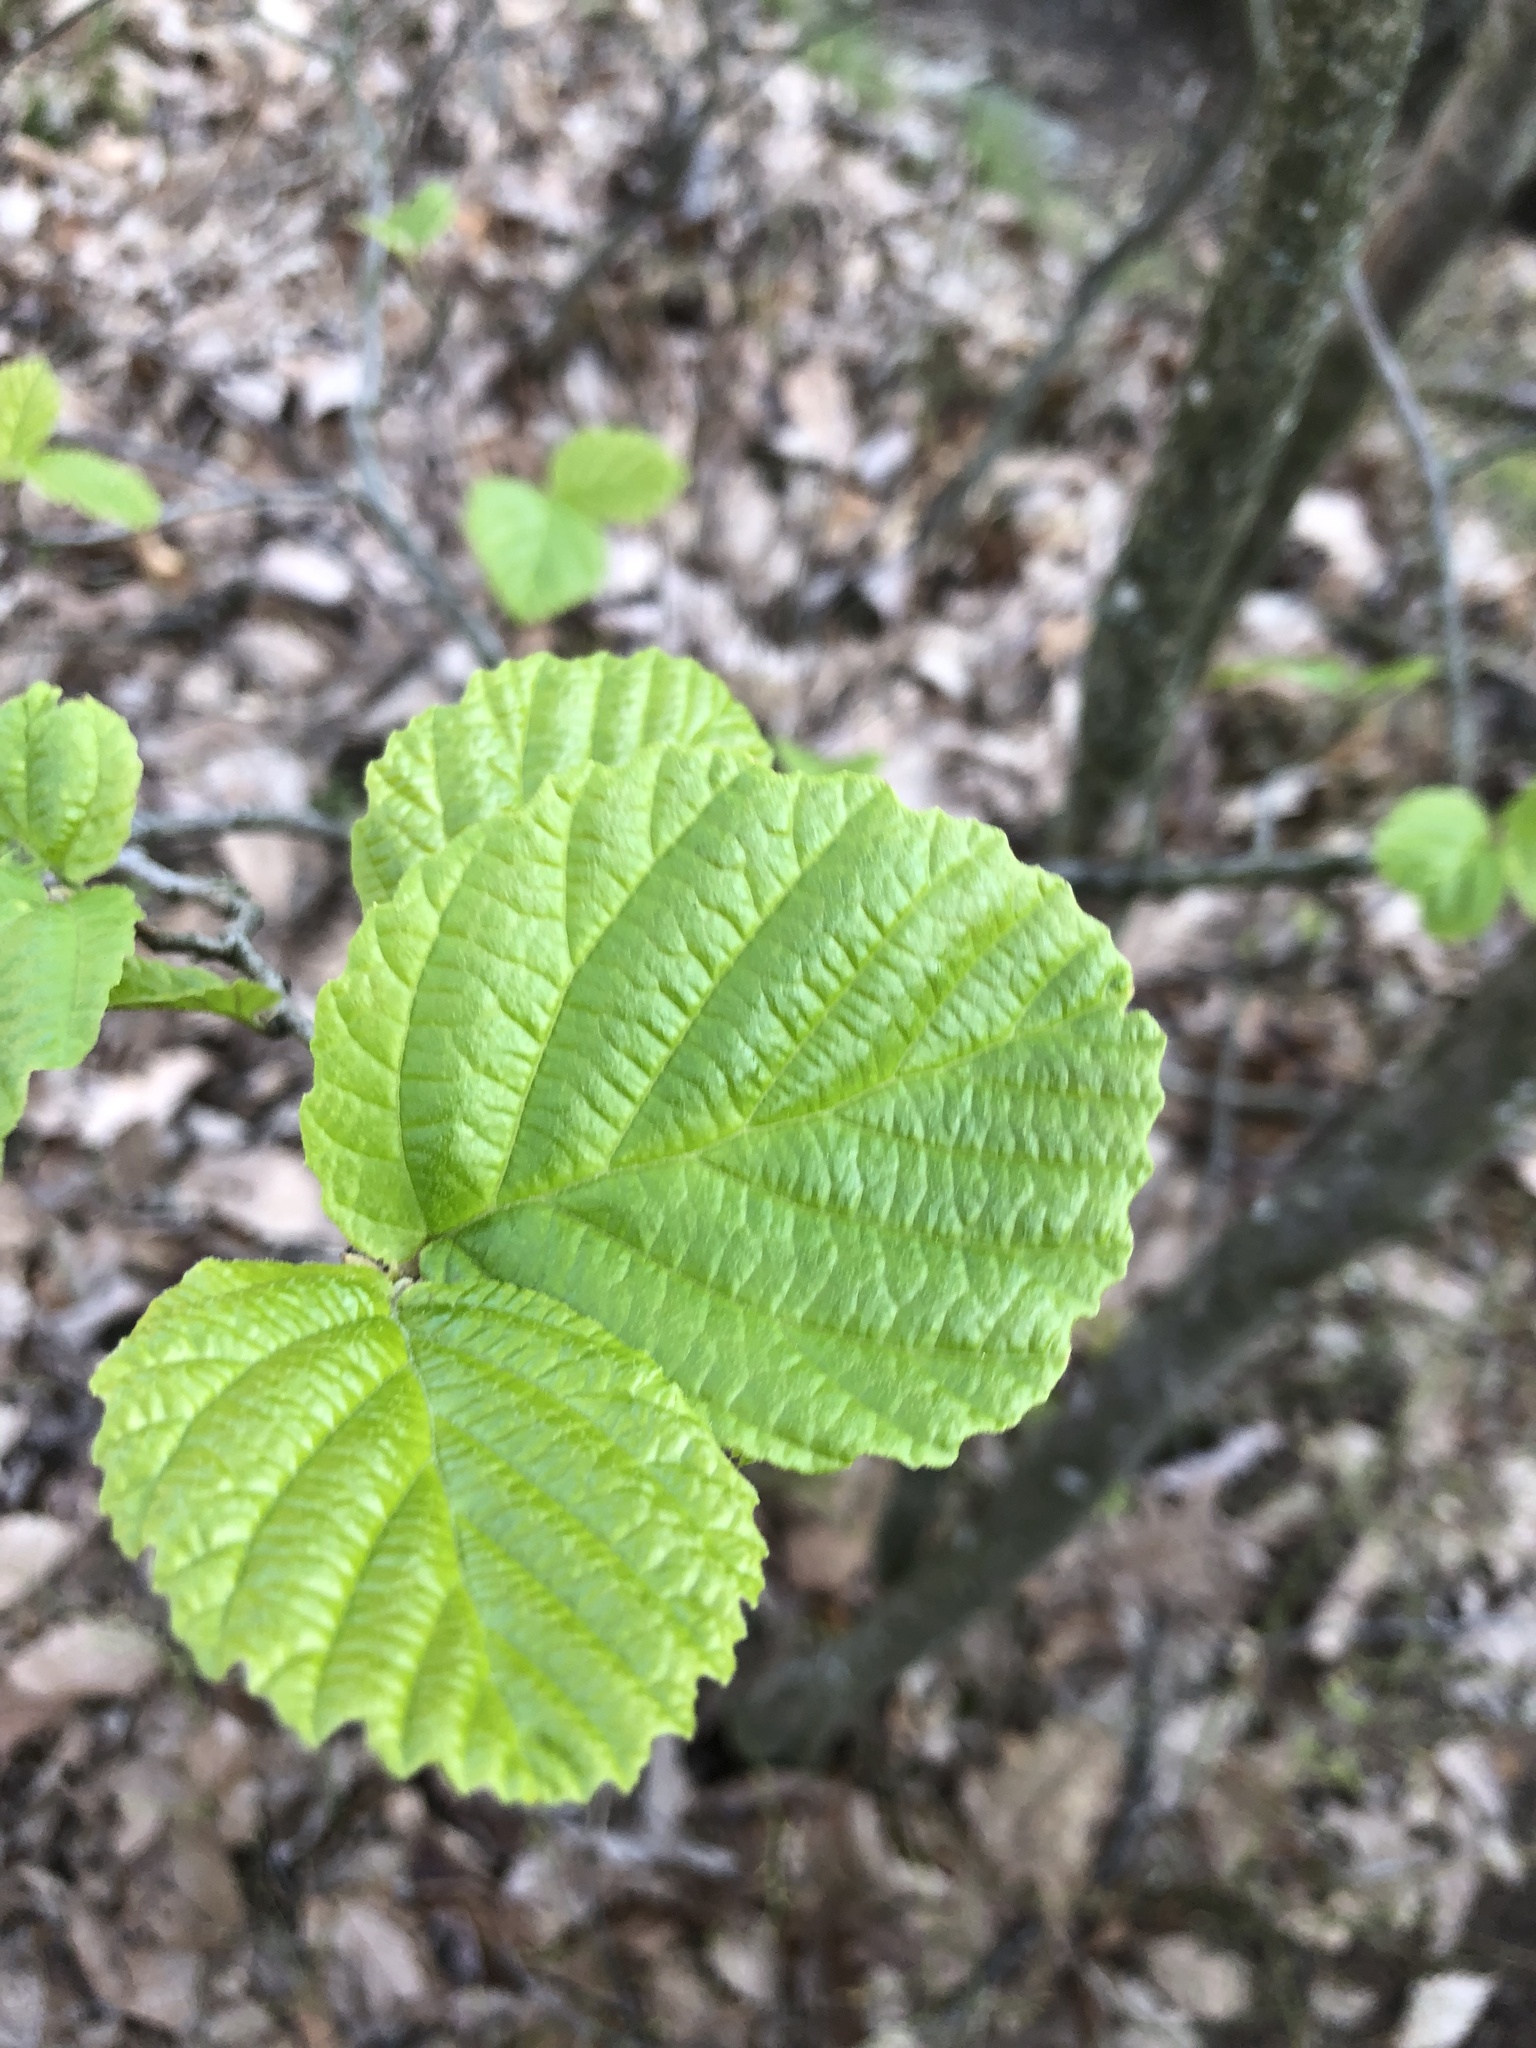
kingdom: Plantae
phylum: Tracheophyta
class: Magnoliopsida
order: Saxifragales
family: Hamamelidaceae
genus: Hamamelis
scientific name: Hamamelis virginiana
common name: Witch-hazel
